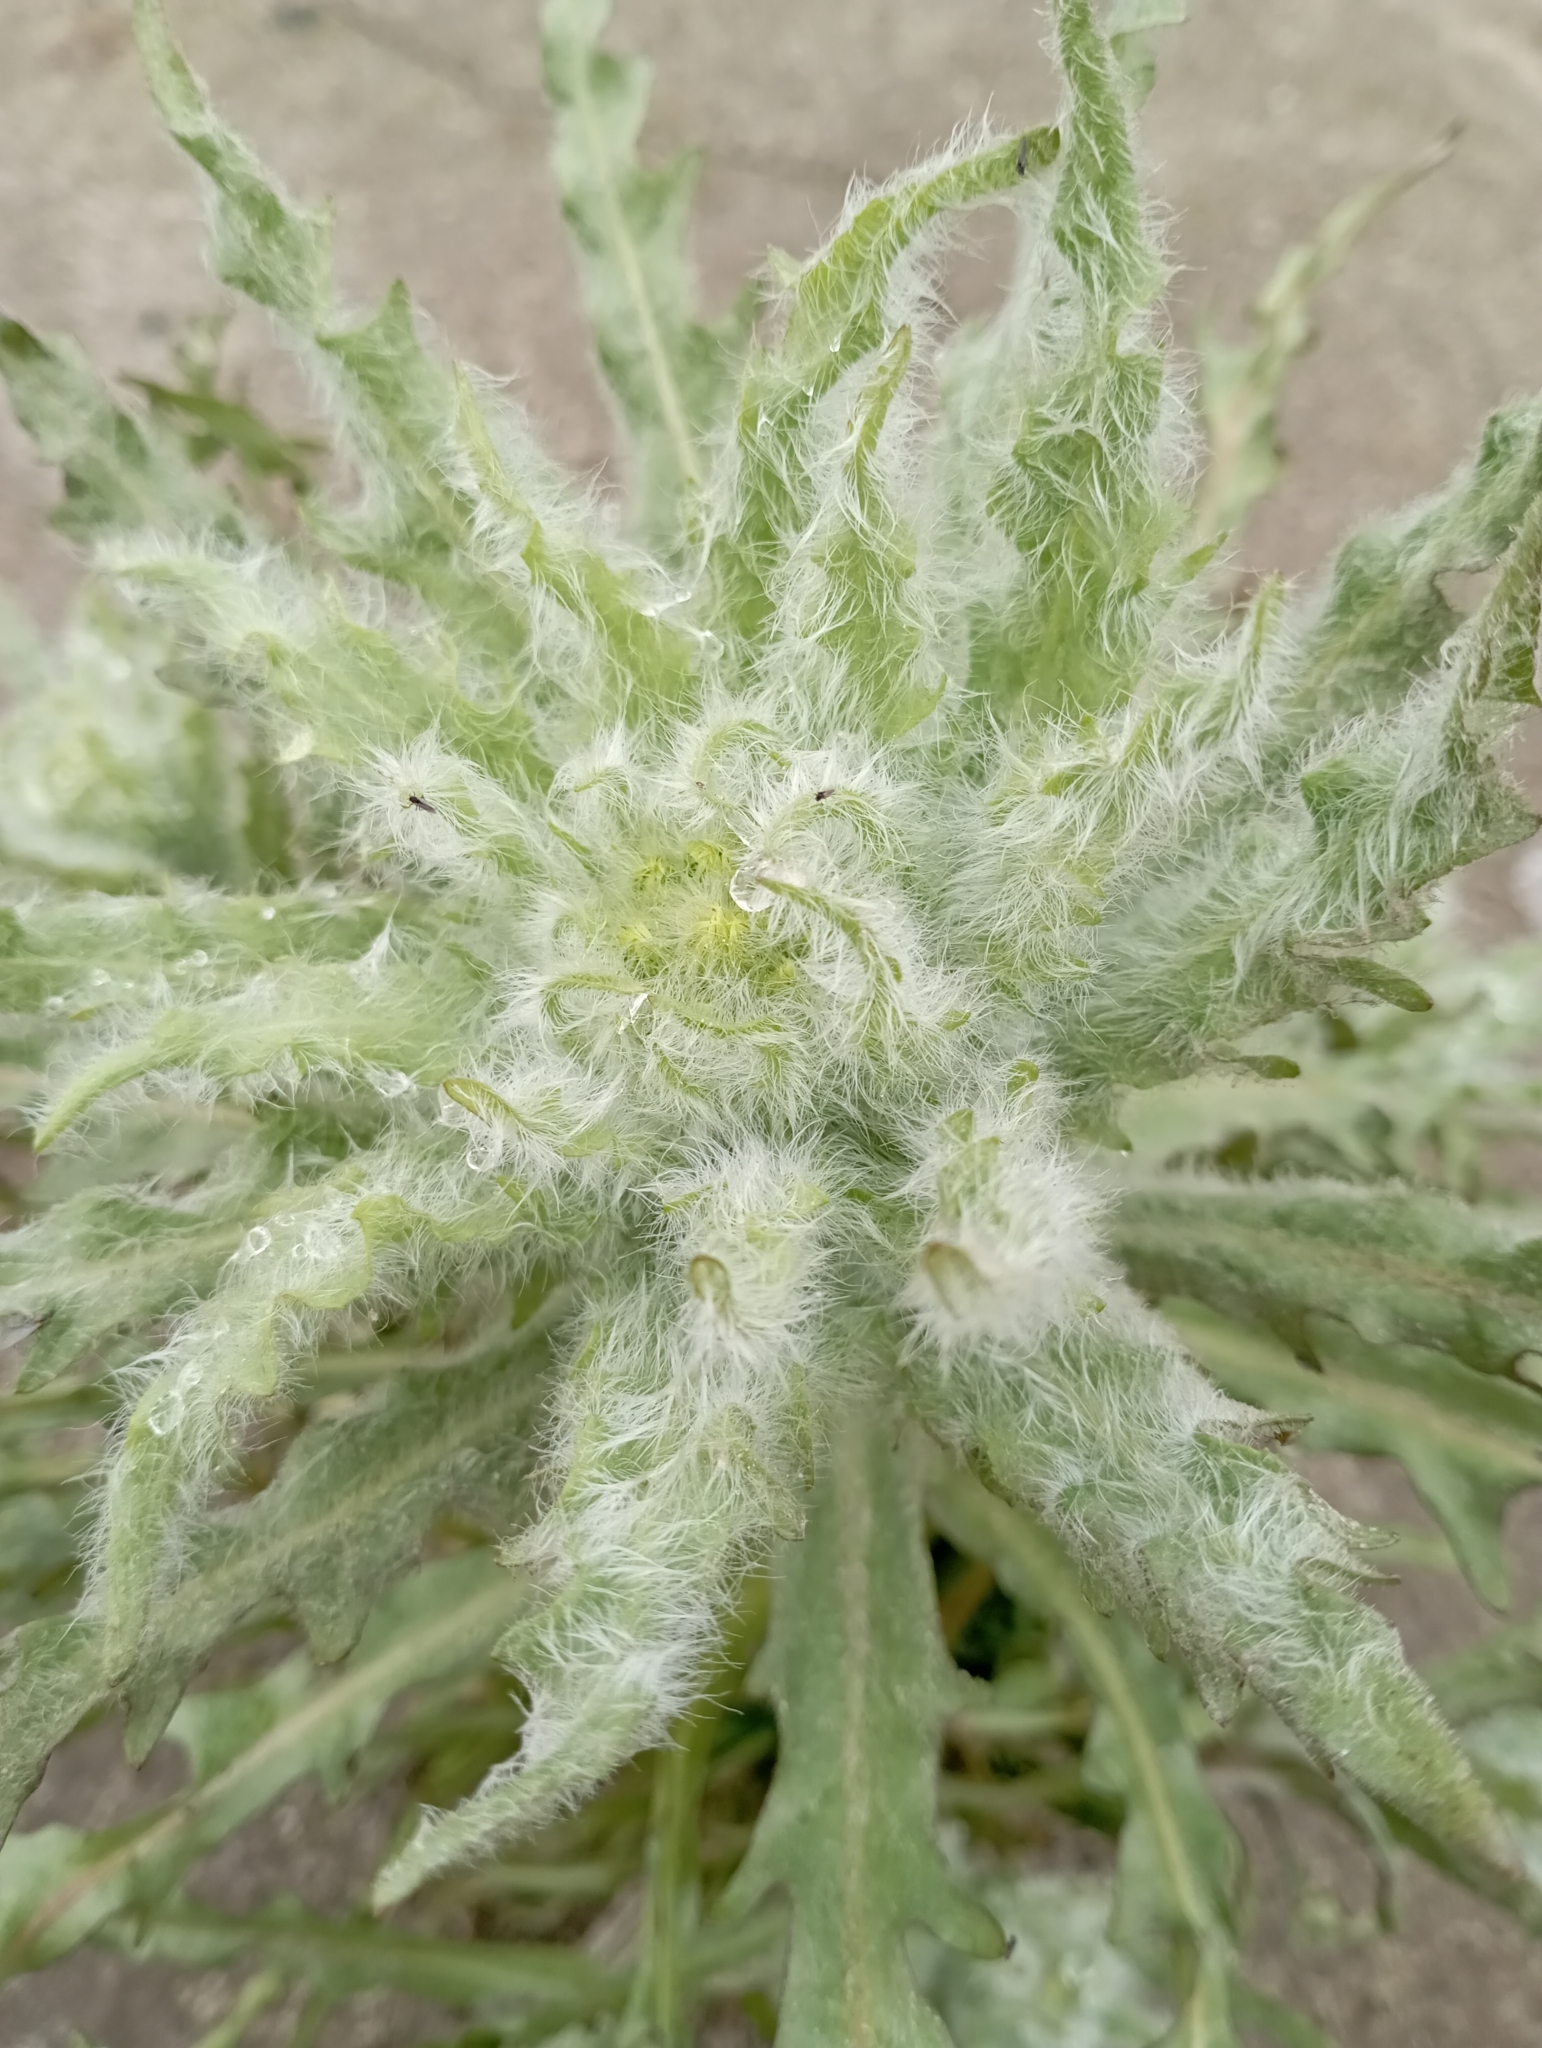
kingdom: Plantae
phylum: Tracheophyta
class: Magnoliopsida
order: Asterales
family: Asteraceae
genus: Tephroseris
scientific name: Tephroseris palustris
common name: Marsh fleawort
